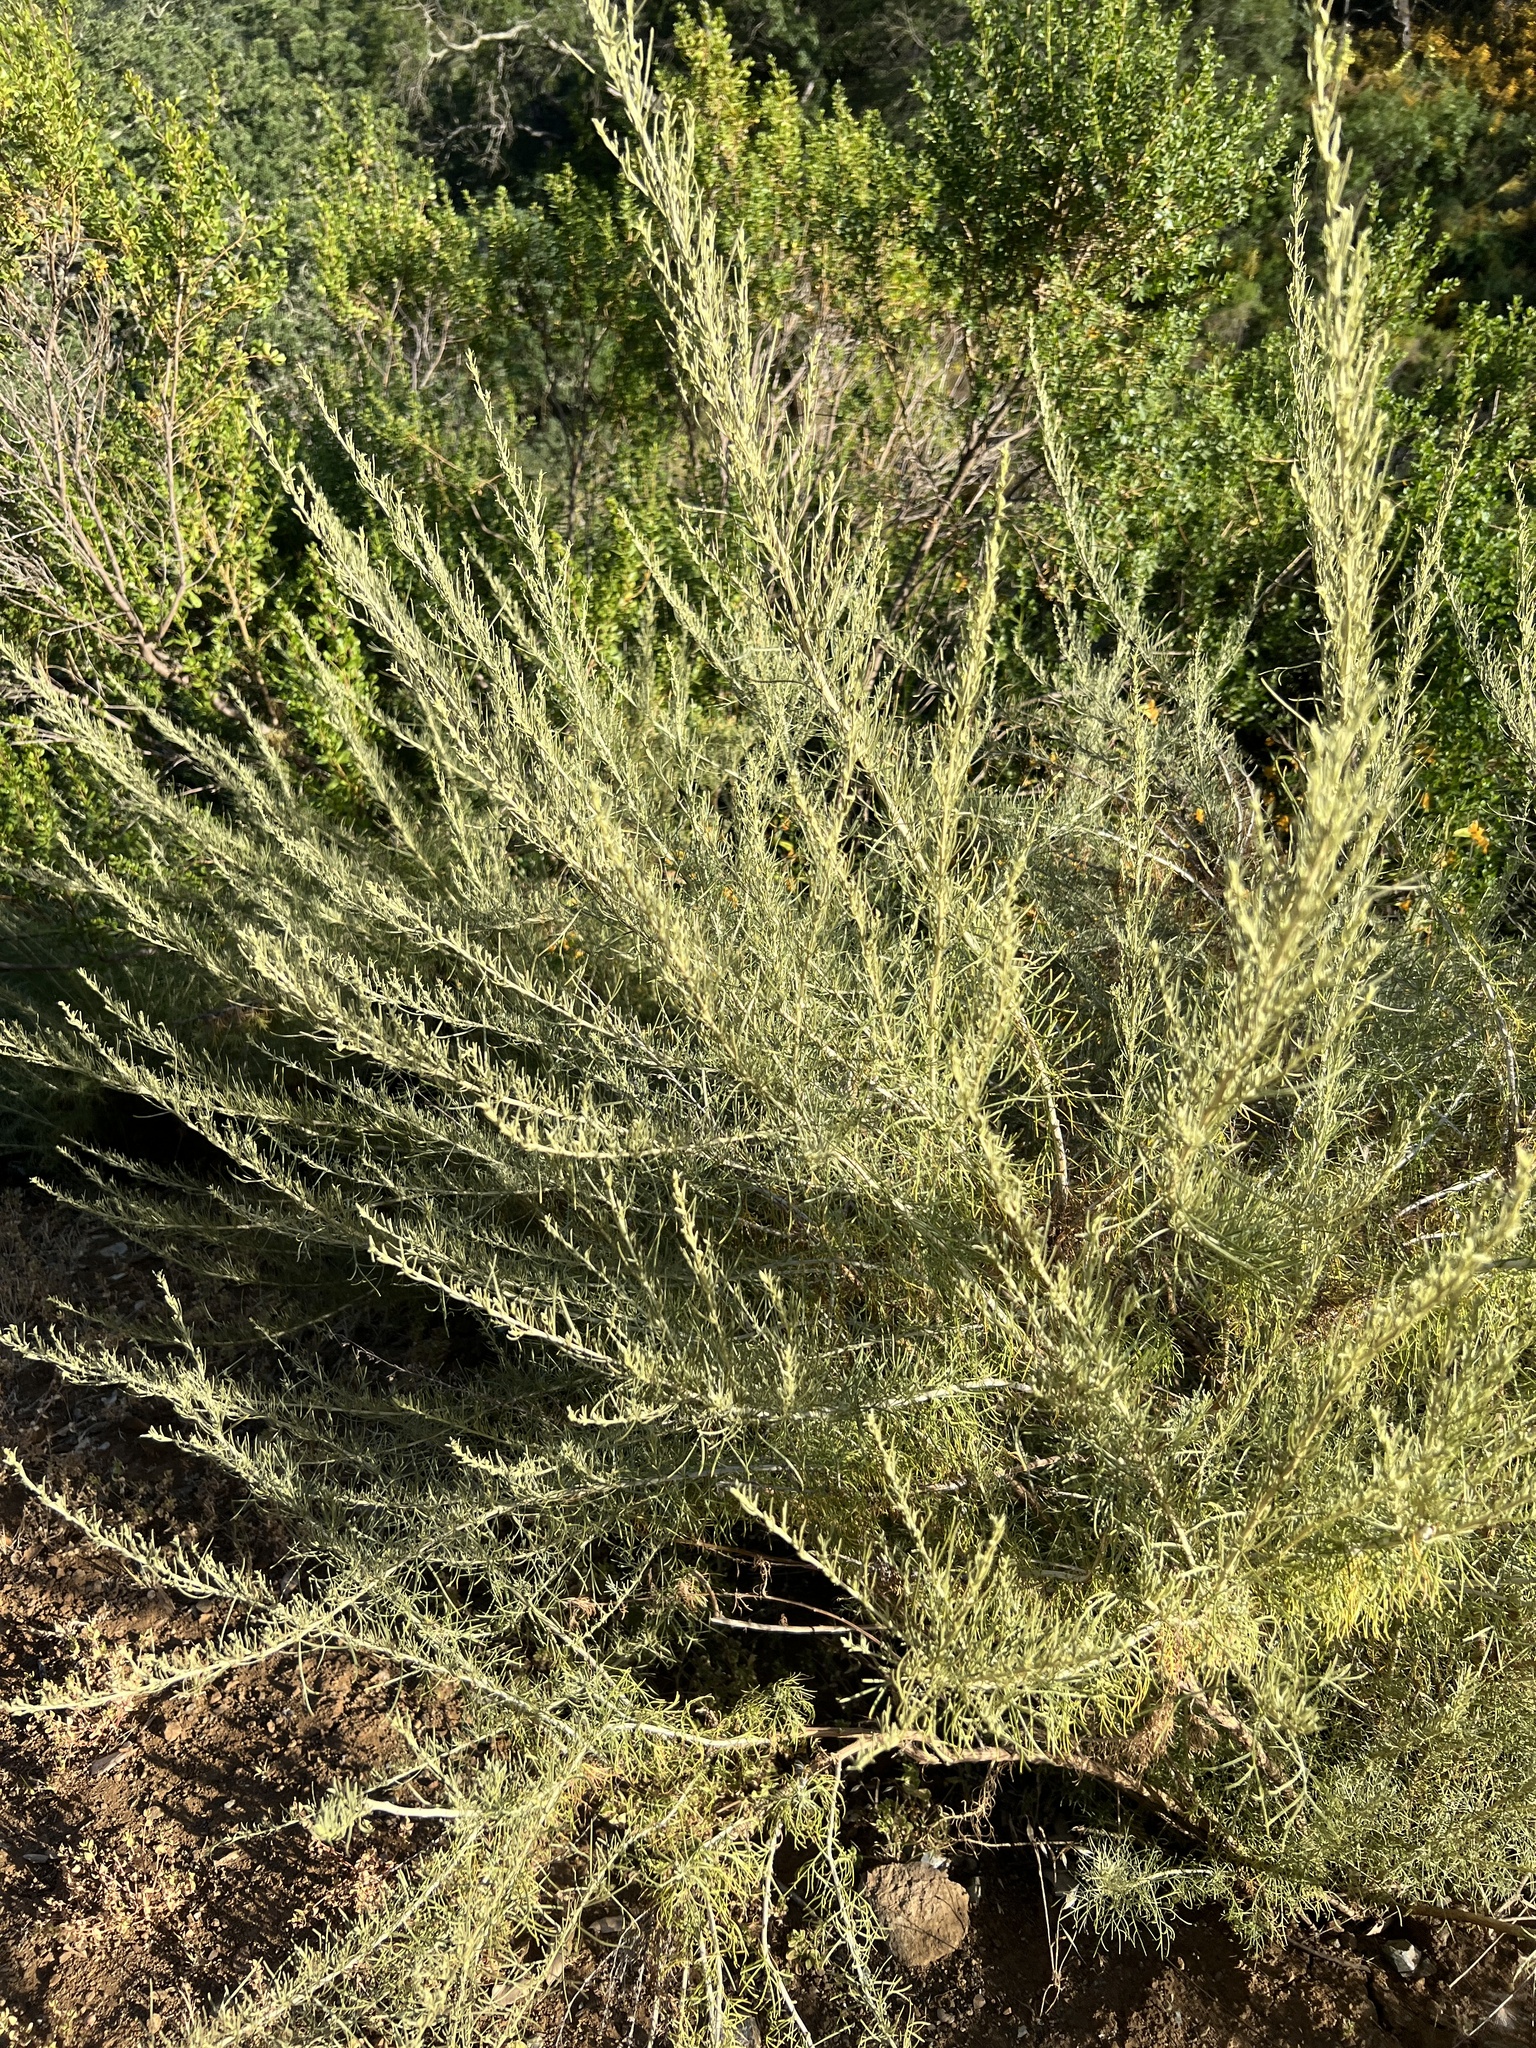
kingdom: Plantae
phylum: Tracheophyta
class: Magnoliopsida
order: Asterales
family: Asteraceae
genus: Artemisia
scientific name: Artemisia californica
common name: California sagebrush
